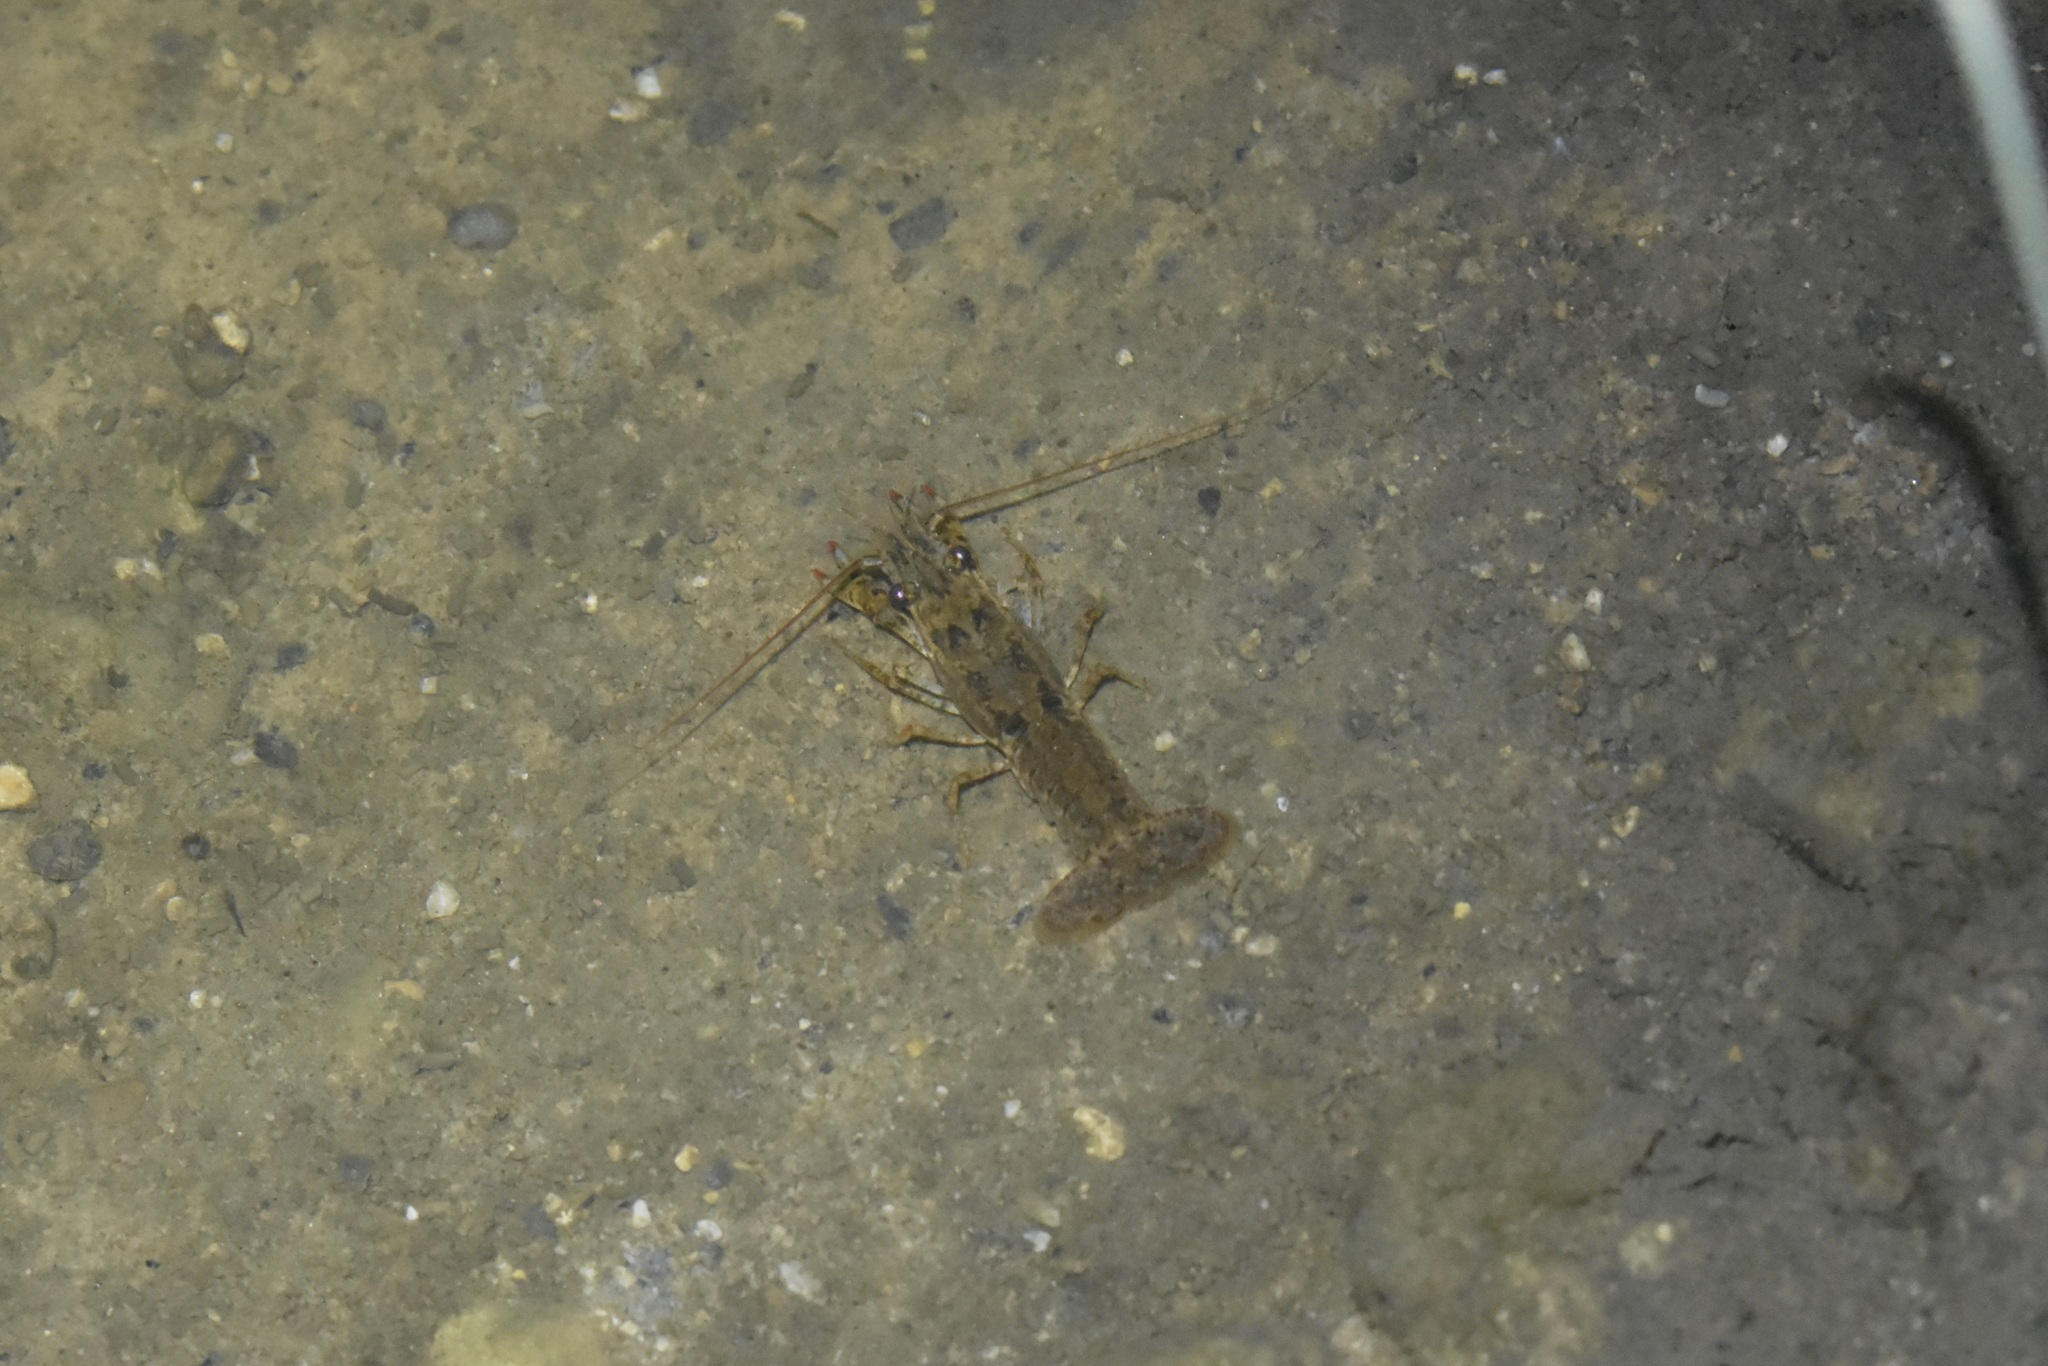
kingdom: Animalia
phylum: Arthropoda
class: Malacostraca
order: Decapoda
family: Cambaridae
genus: Procambarus
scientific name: Procambarus simulans
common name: Southern plains crayfish
